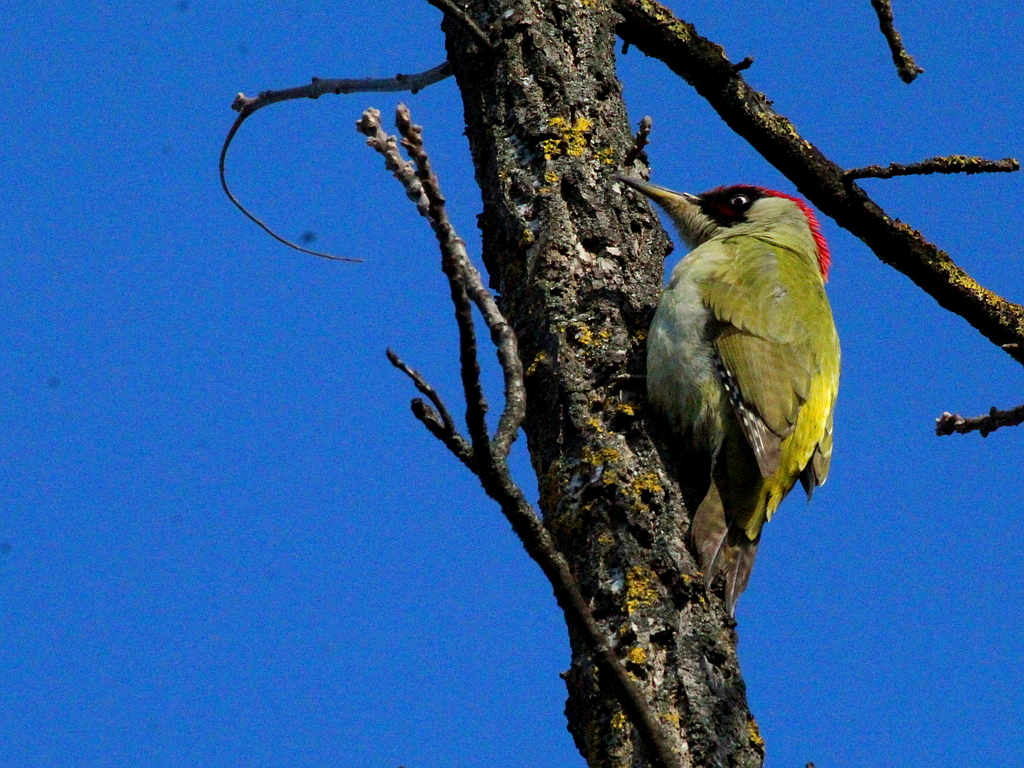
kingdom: Animalia
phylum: Chordata
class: Aves
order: Piciformes
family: Picidae
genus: Picus
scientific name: Picus viridis
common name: European green woodpecker
